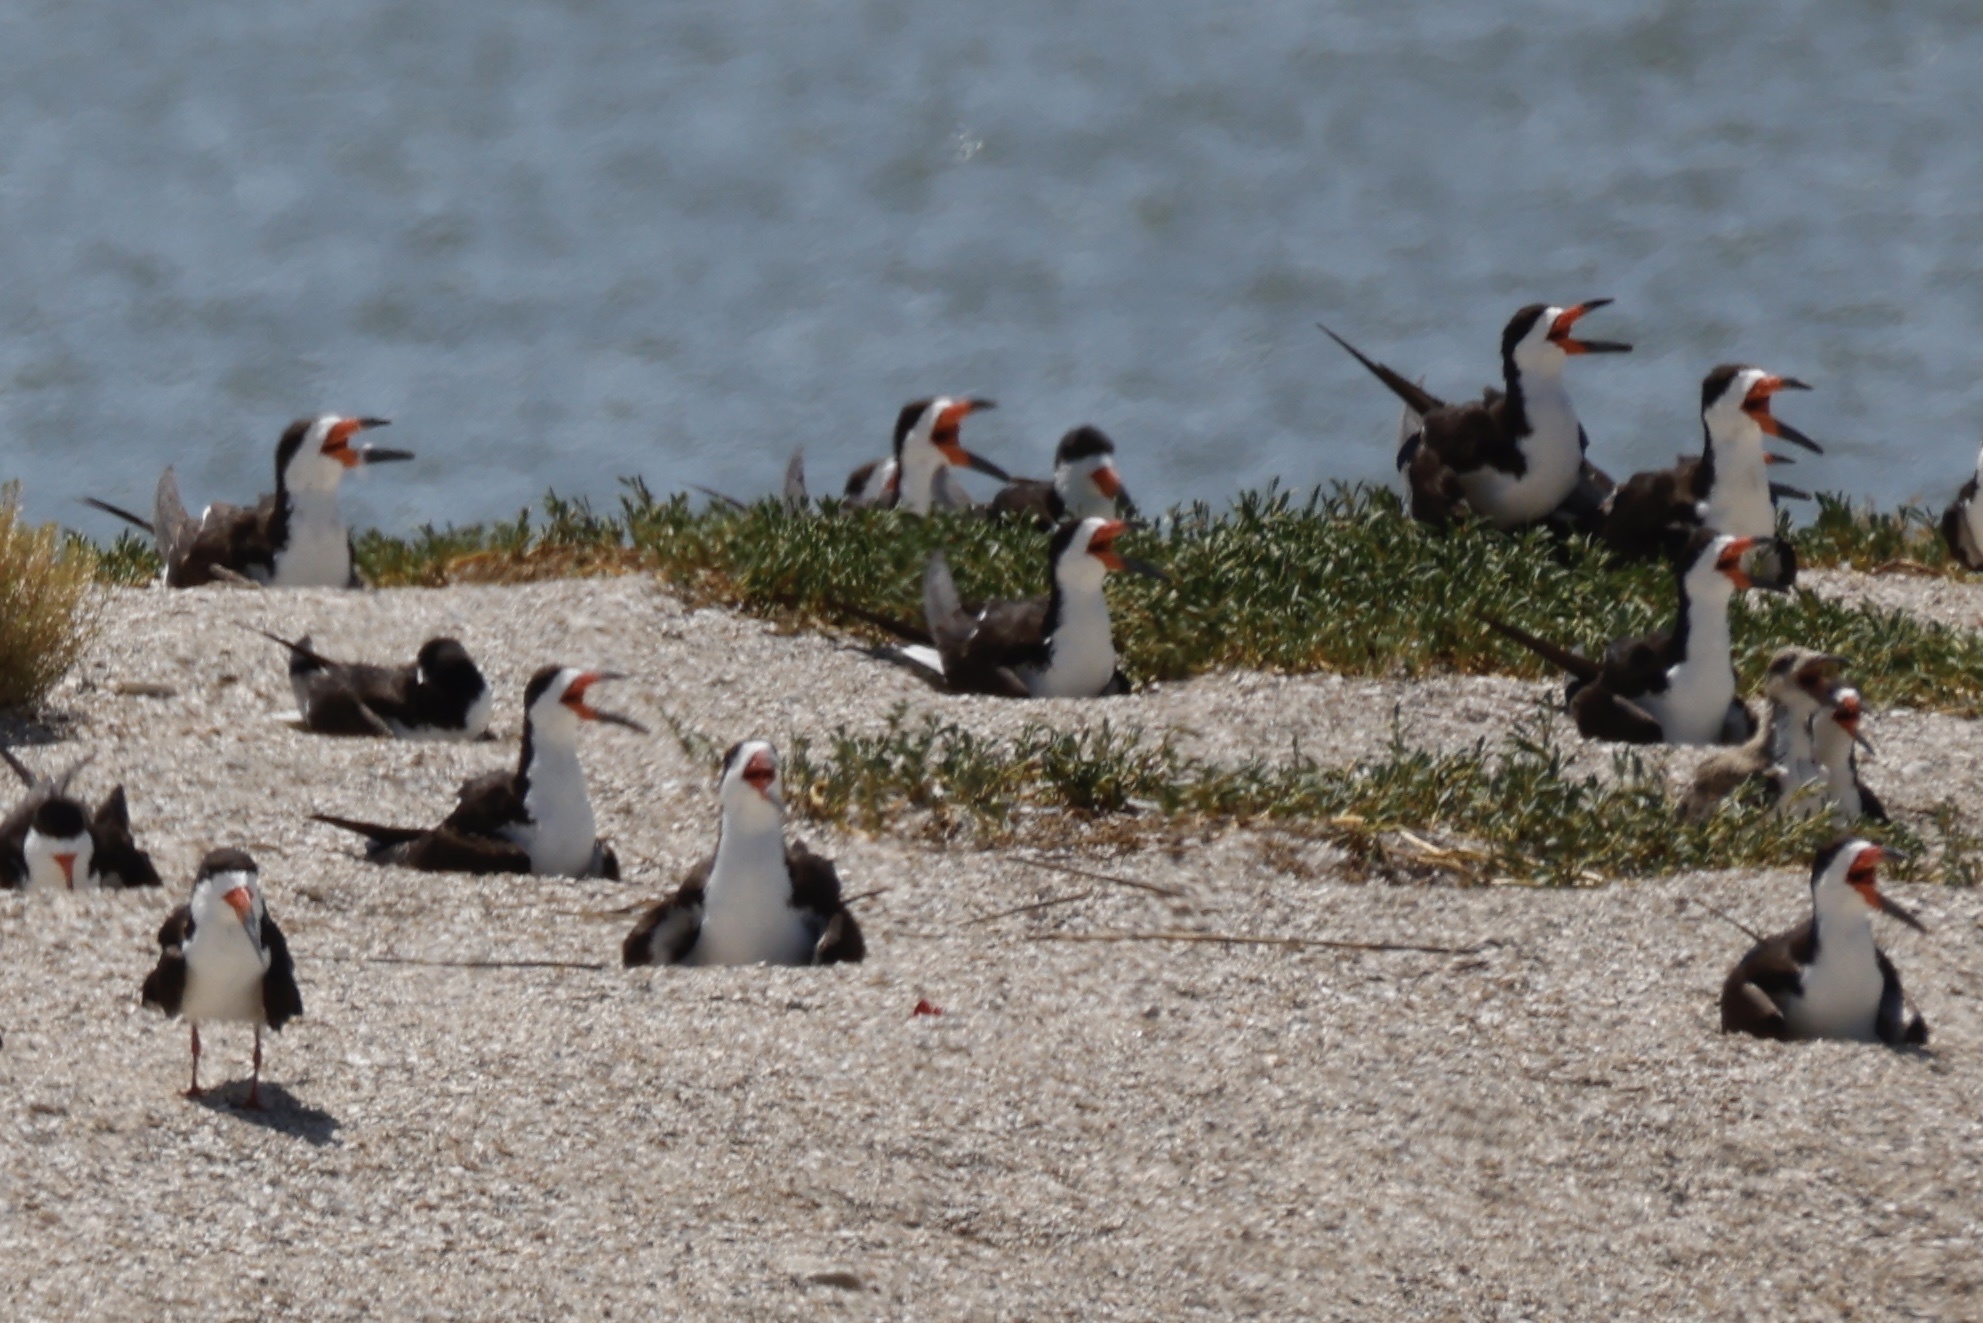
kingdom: Animalia
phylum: Chordata
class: Aves
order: Charadriiformes
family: Laridae
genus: Rynchops
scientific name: Rynchops niger
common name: Black skimmer
